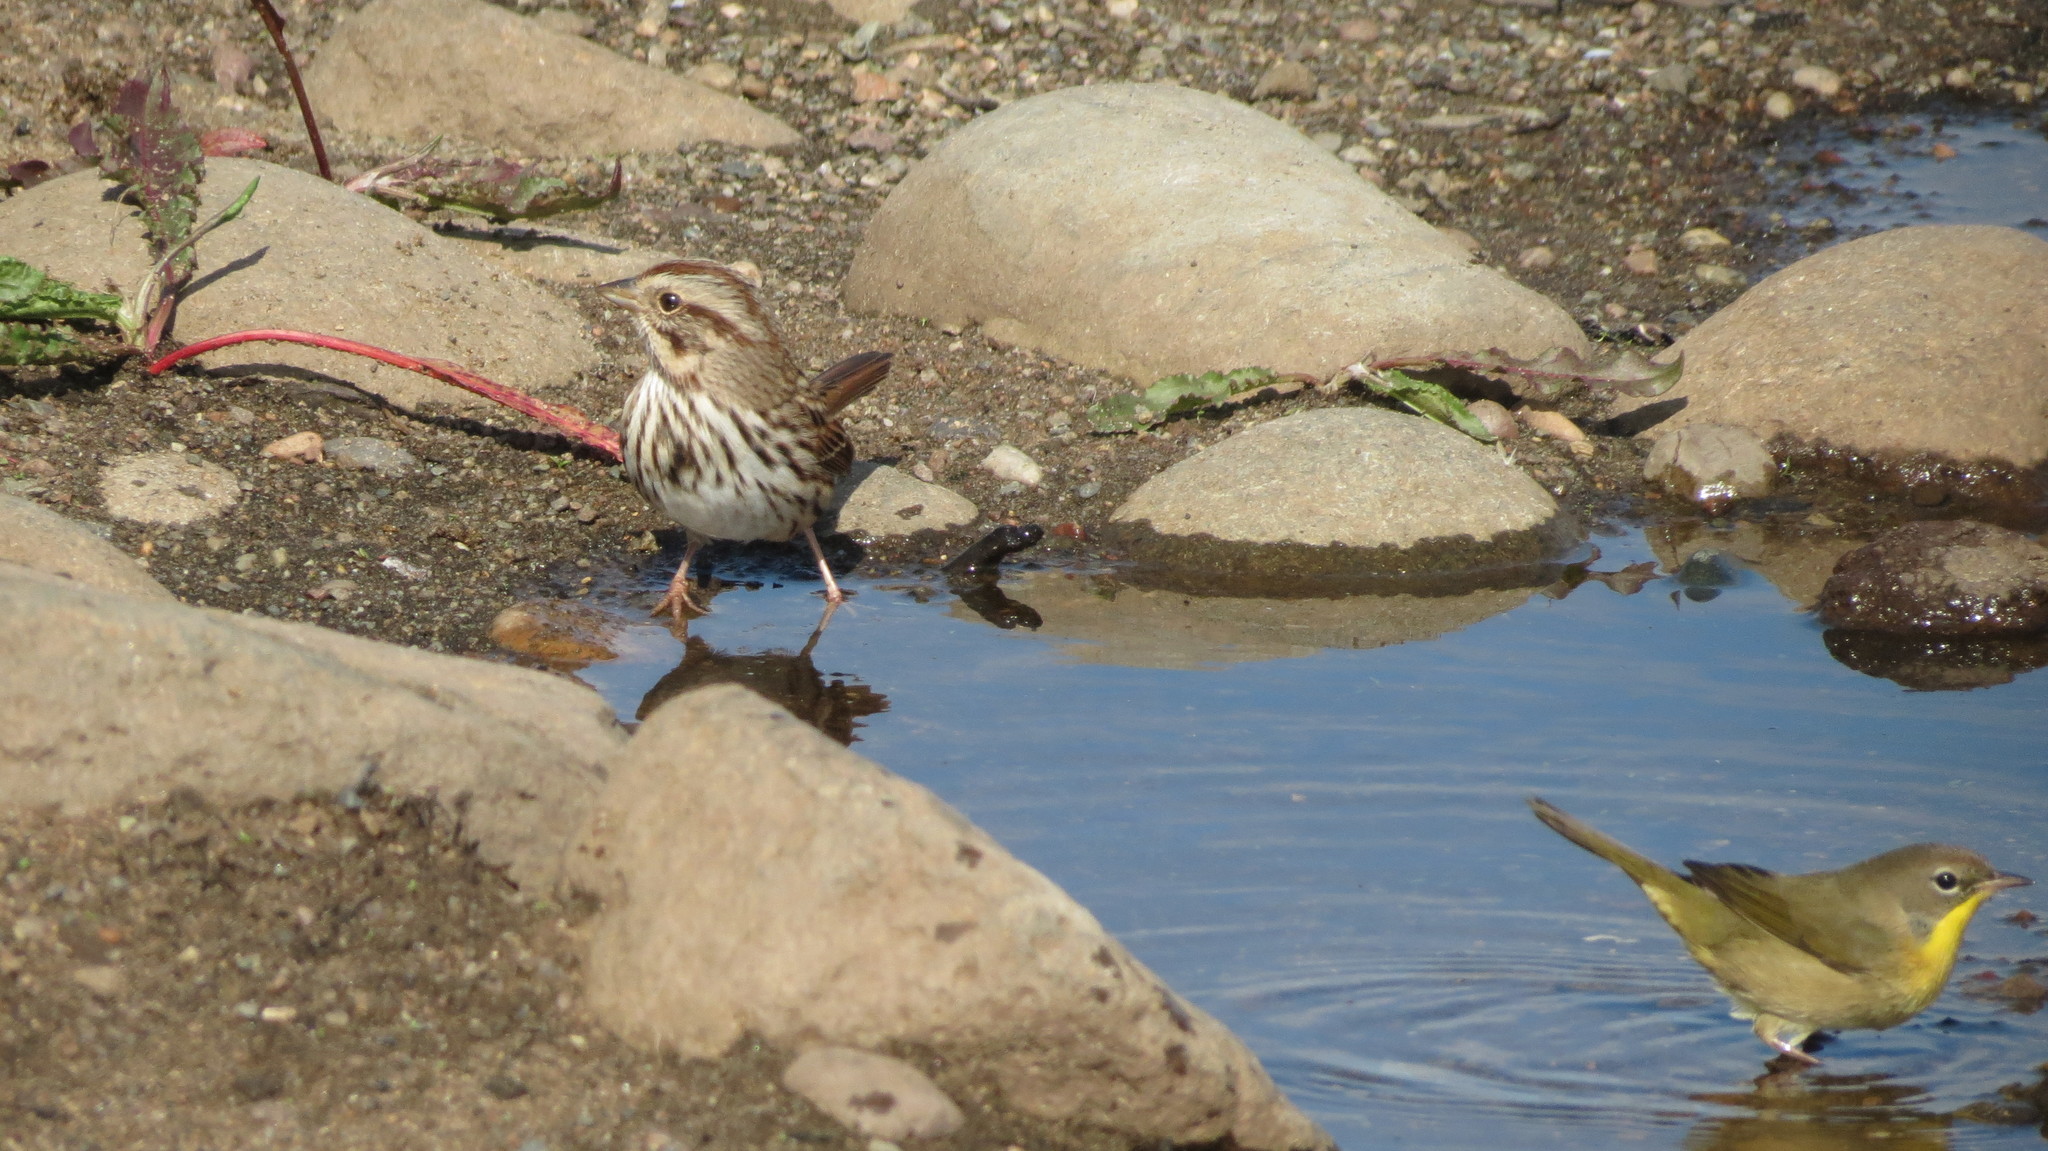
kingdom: Animalia
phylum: Chordata
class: Aves
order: Passeriformes
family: Passerellidae
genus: Melospiza
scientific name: Melospiza melodia
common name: Song sparrow
